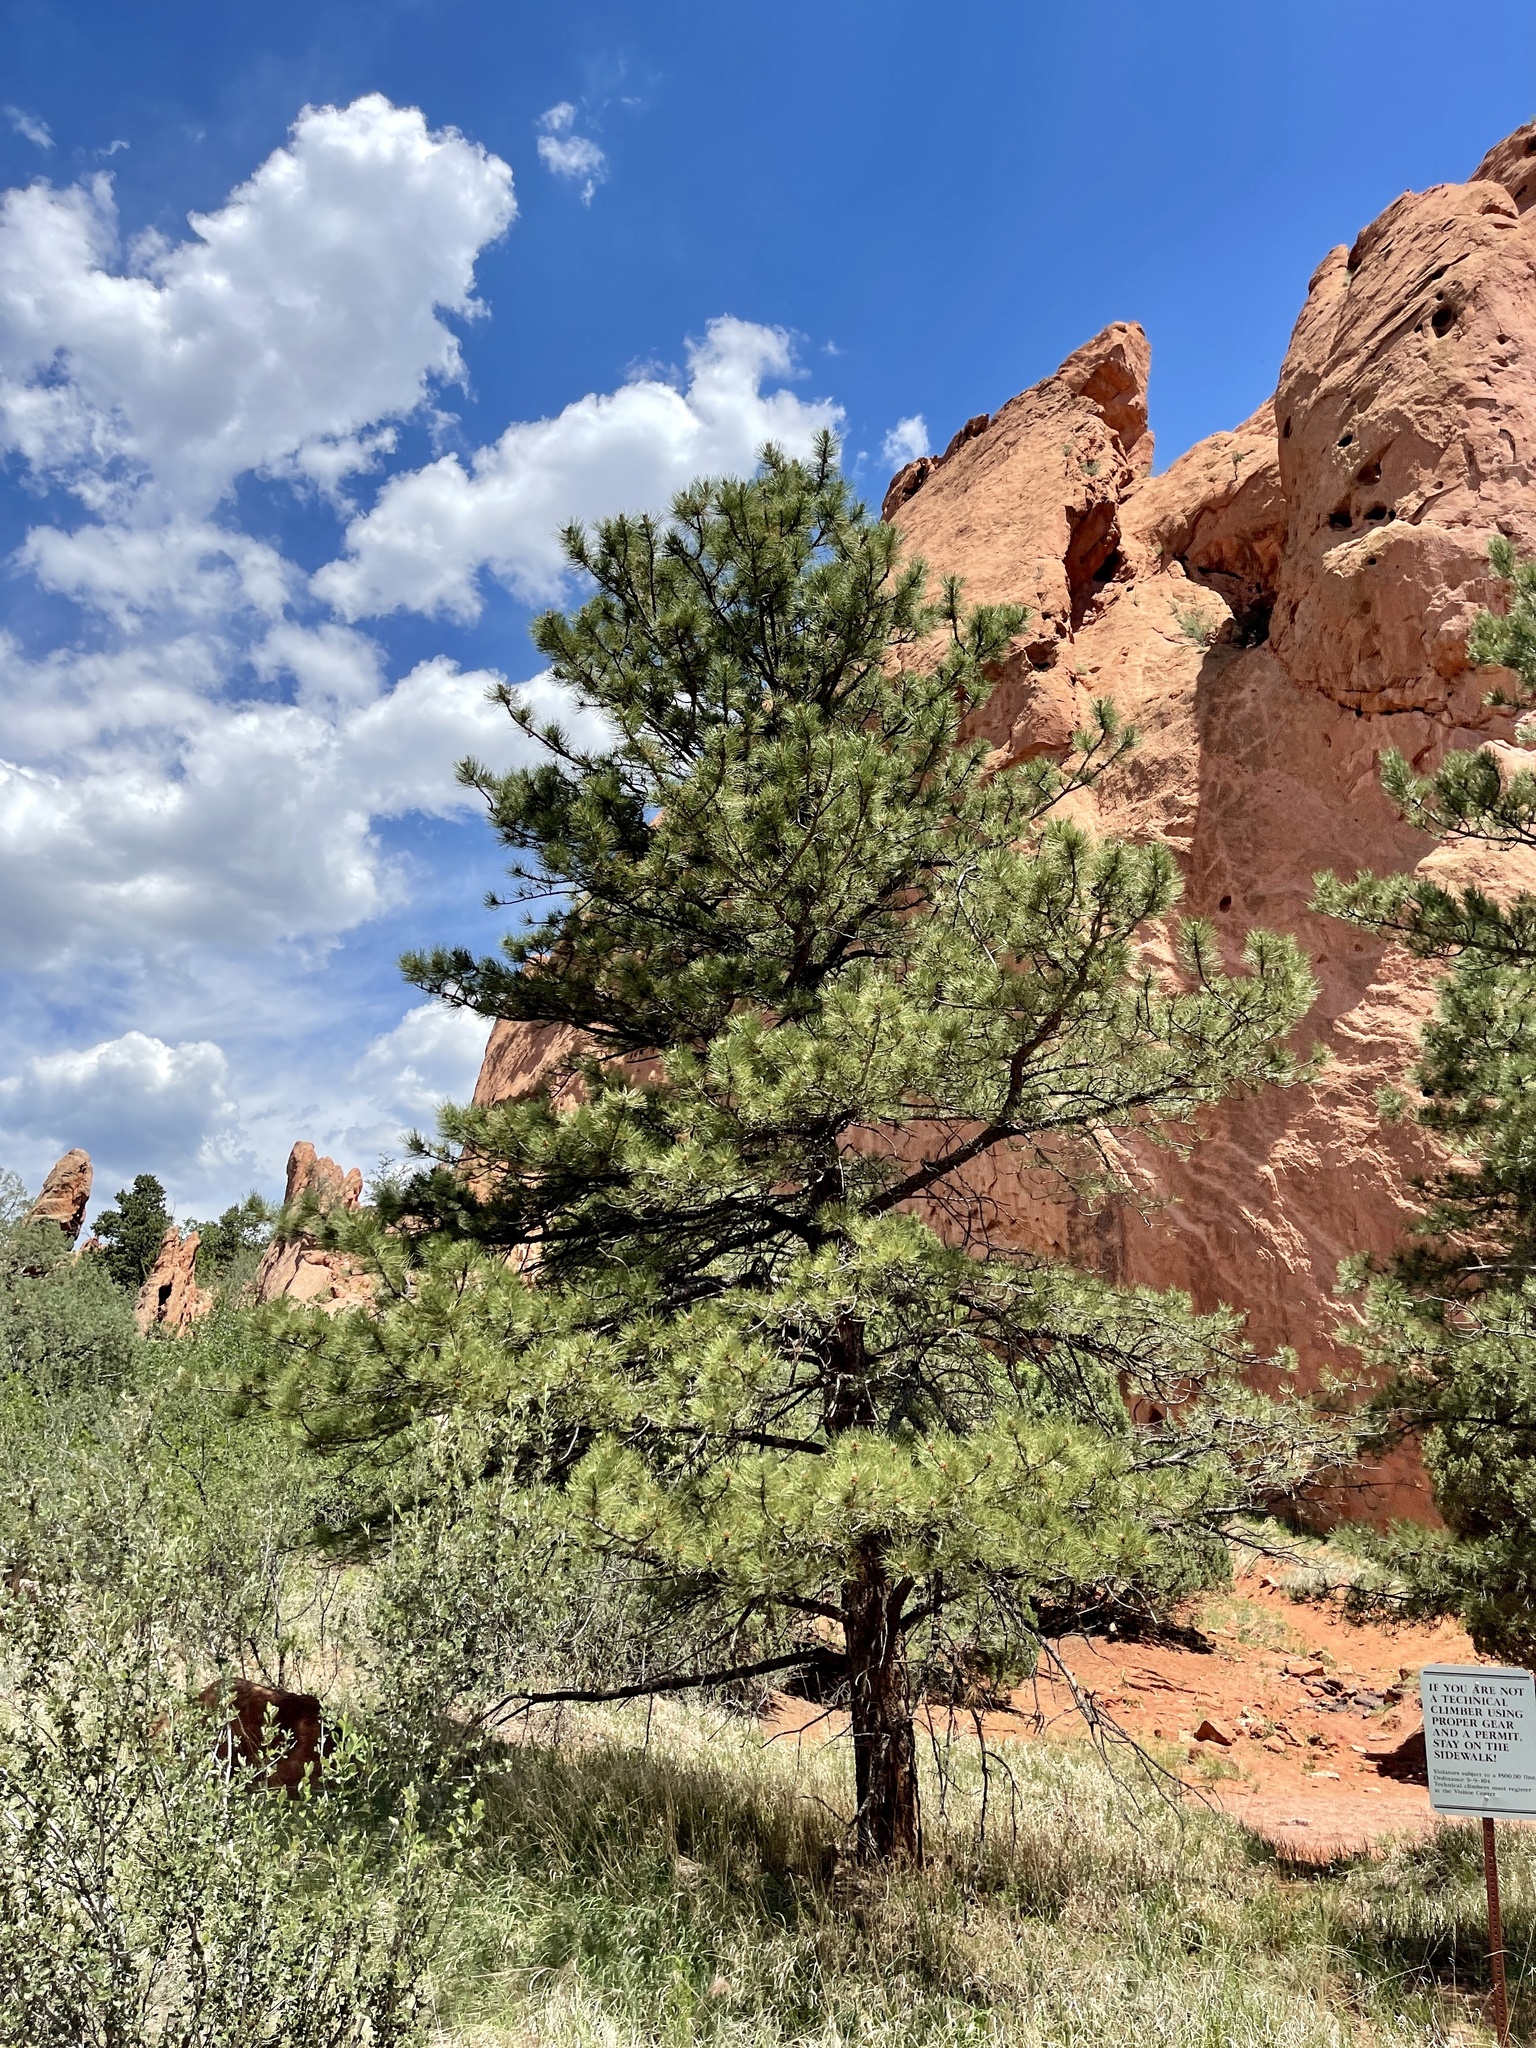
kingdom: Plantae
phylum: Tracheophyta
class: Pinopsida
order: Pinales
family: Pinaceae
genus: Pinus
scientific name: Pinus ponderosa
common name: Western yellow-pine
